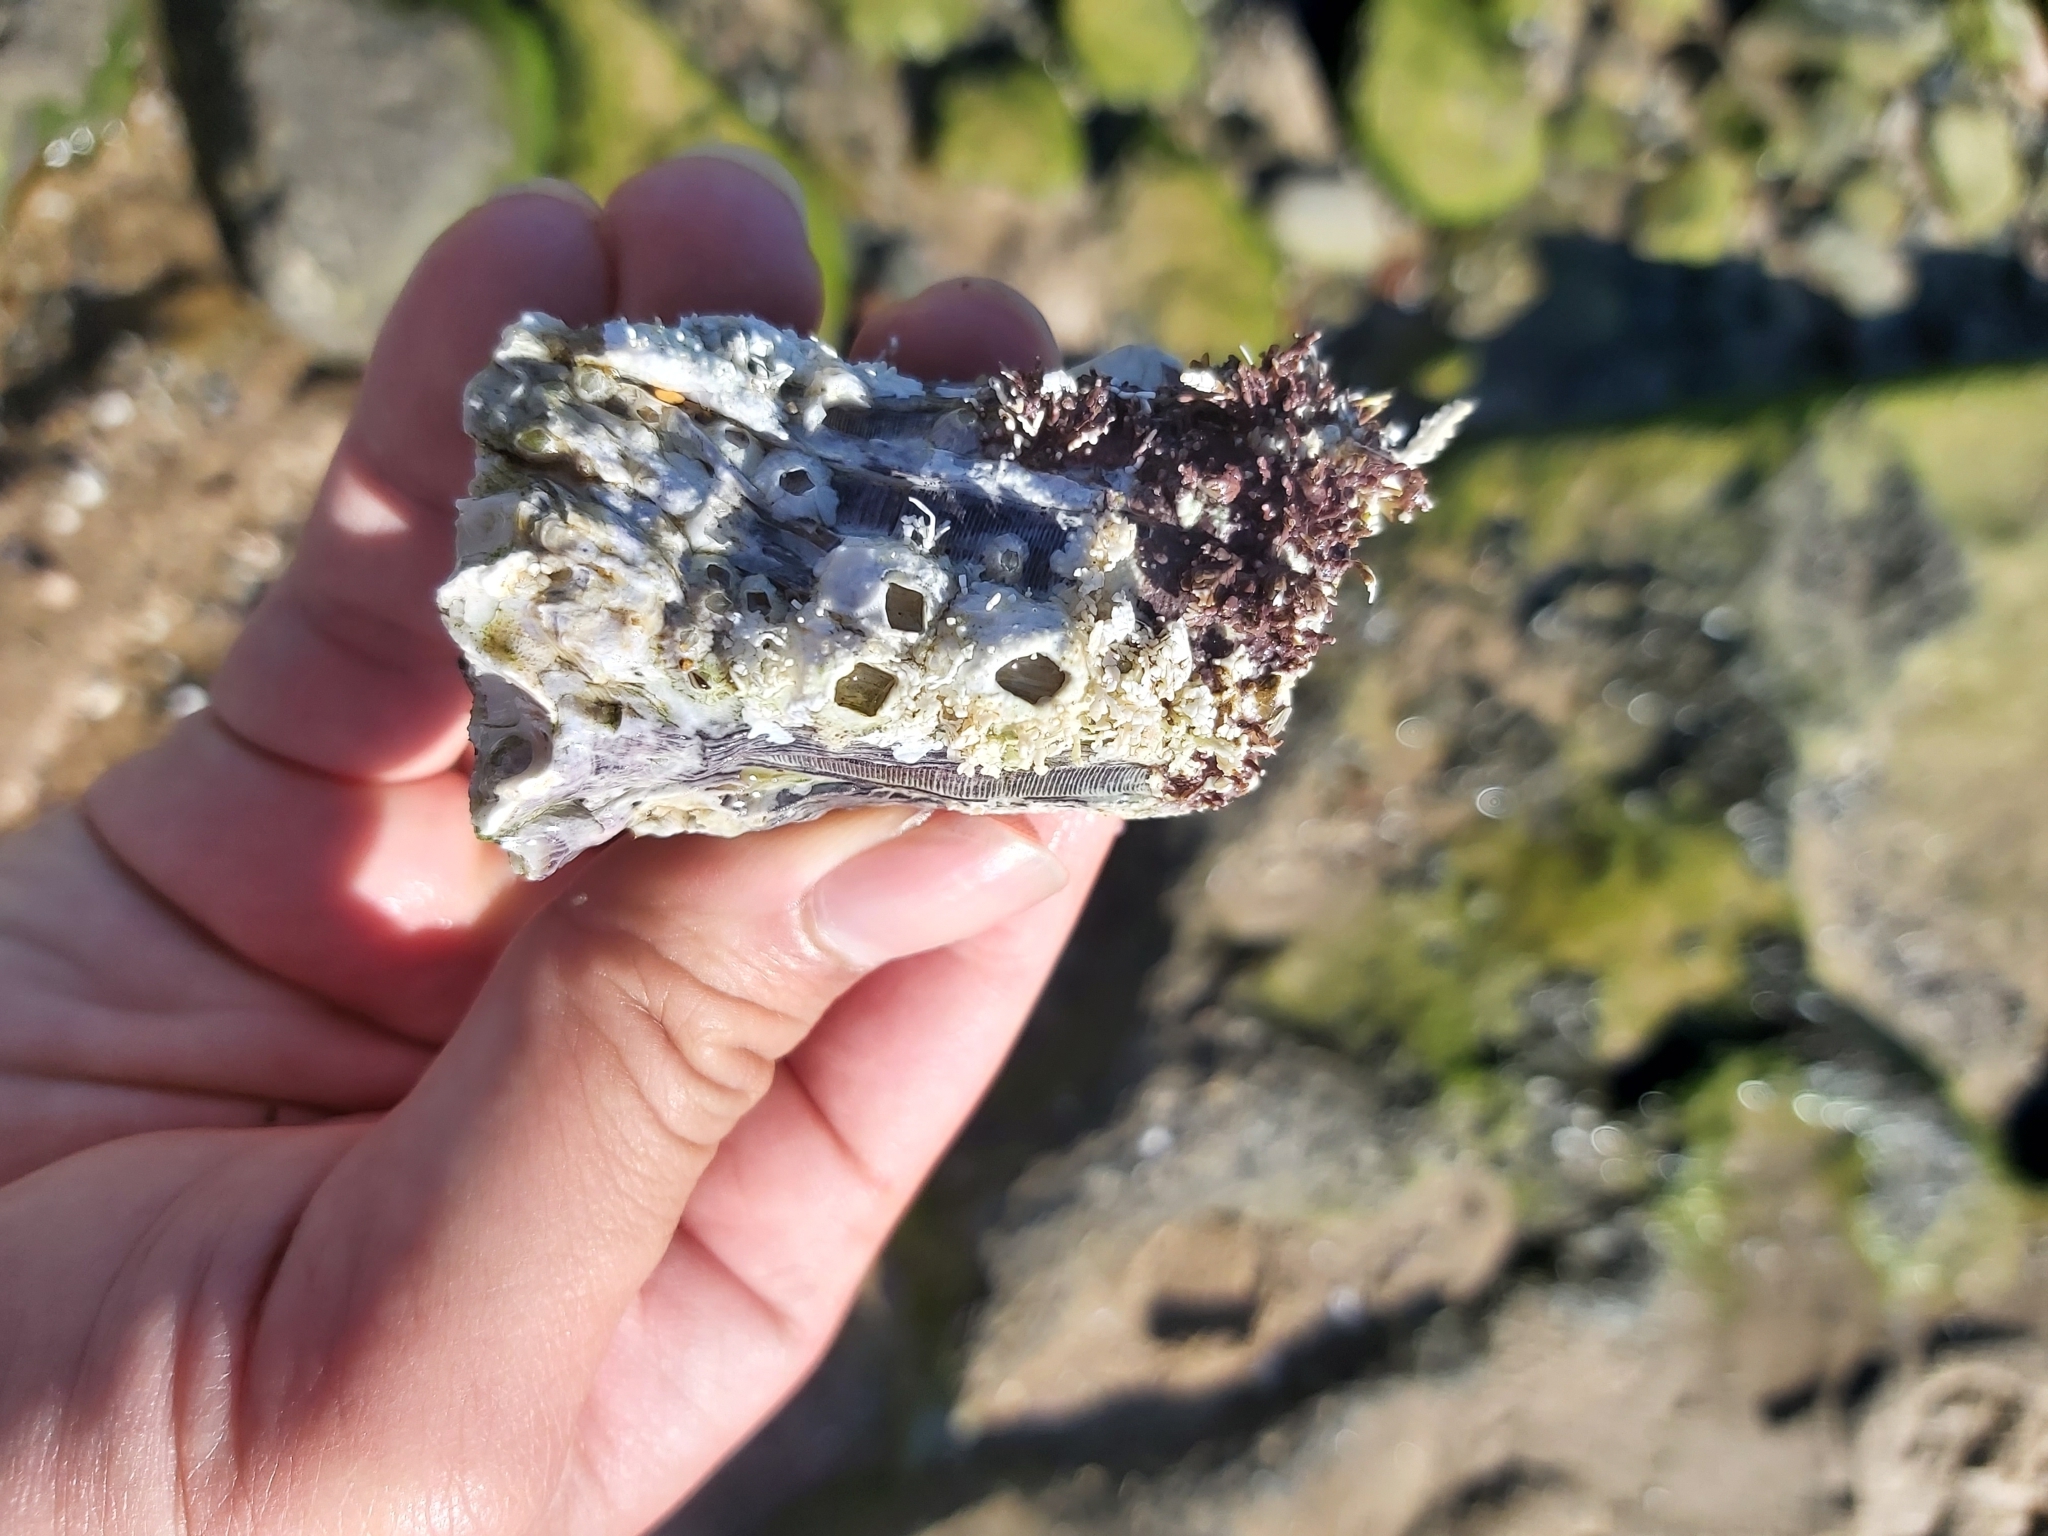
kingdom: Animalia
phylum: Arthropoda
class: Maxillopoda
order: Sessilia
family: Balanidae
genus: Austromegabalanus
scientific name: Austromegabalanus nigrescens
